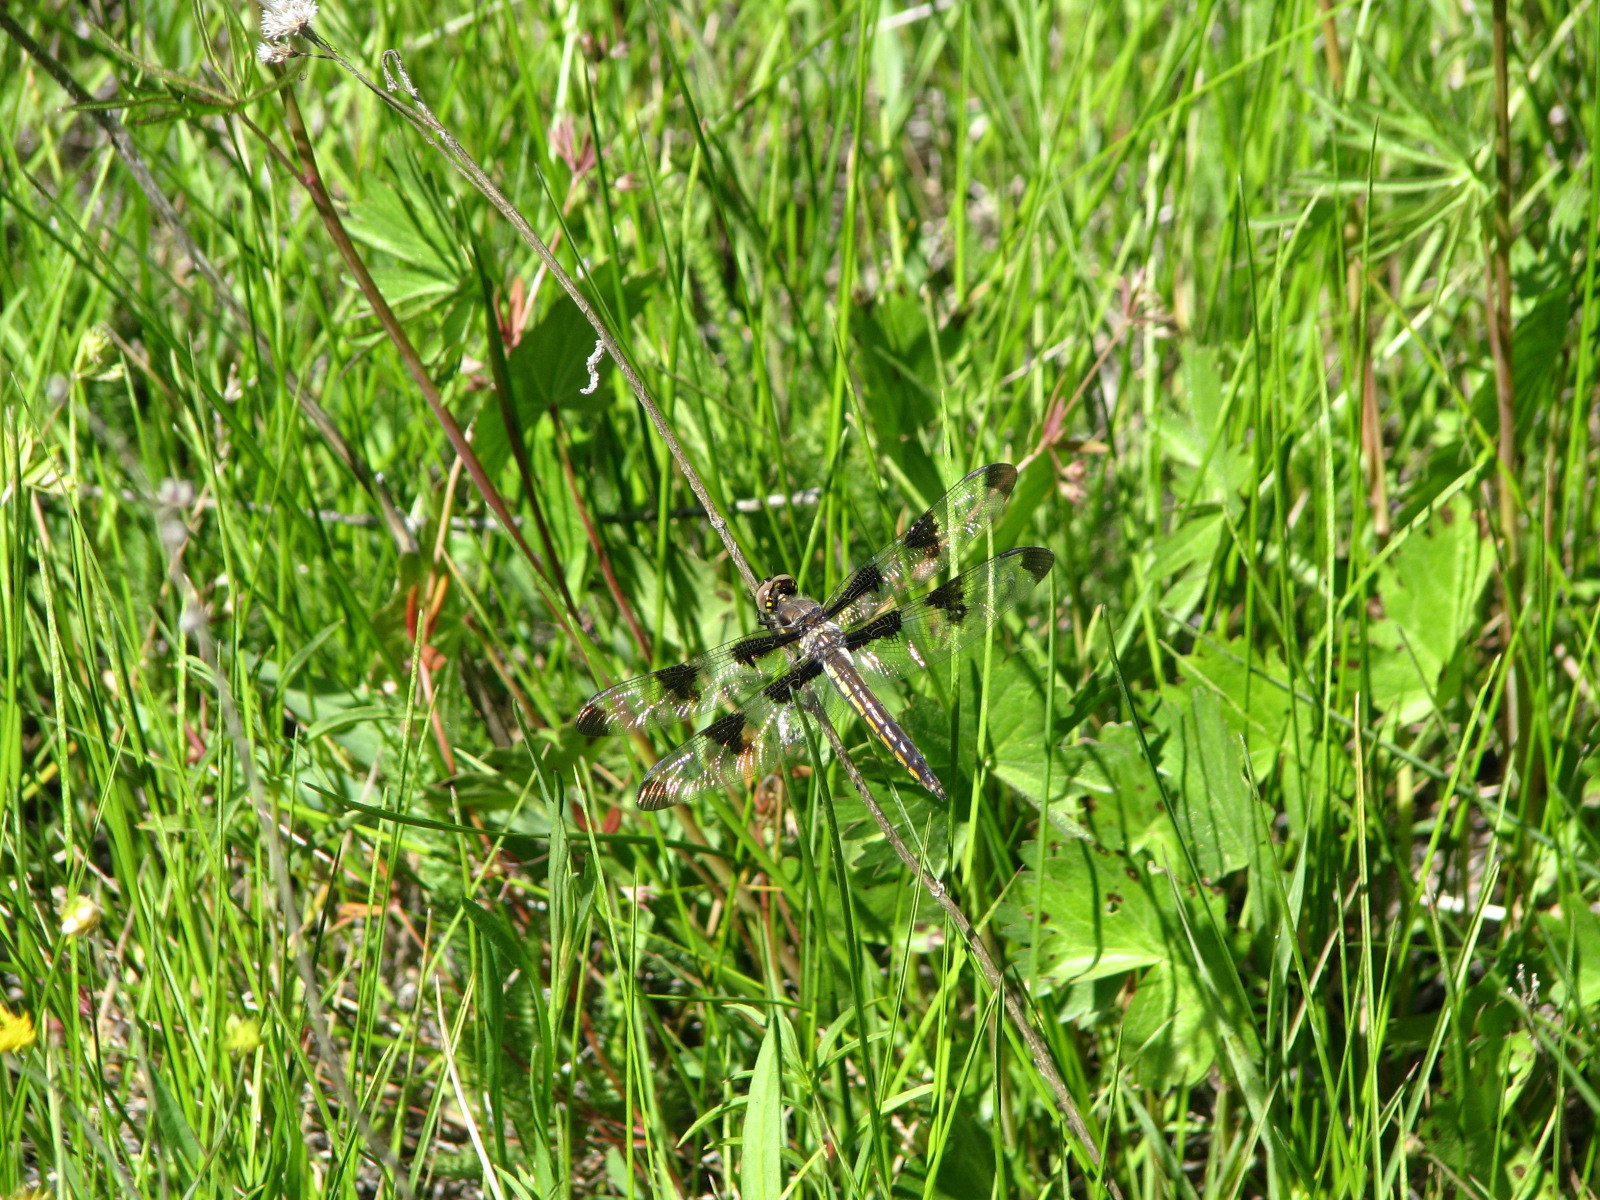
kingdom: Animalia
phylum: Arthropoda
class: Insecta
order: Odonata
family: Libellulidae
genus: Libellula
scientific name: Libellula pulchella
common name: Twelve-spotted skimmer
